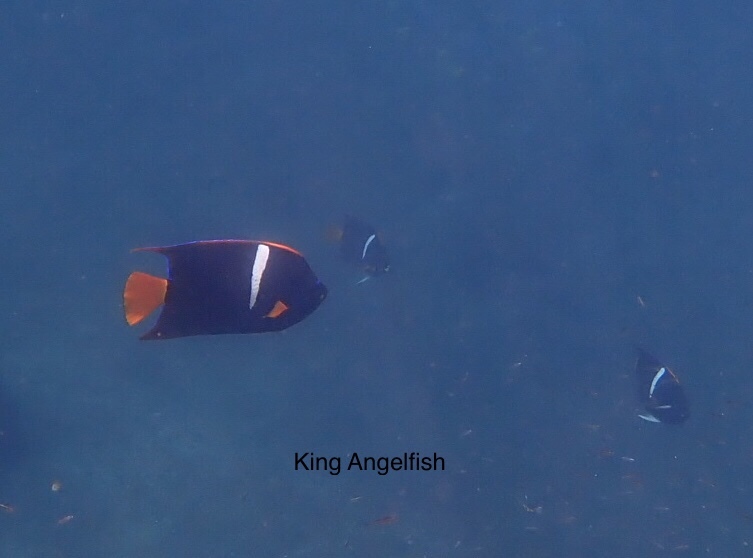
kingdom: Animalia
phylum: Chordata
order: Perciformes
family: Pomacanthidae
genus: Holacanthus
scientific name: Holacanthus passer
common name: King angelfish
